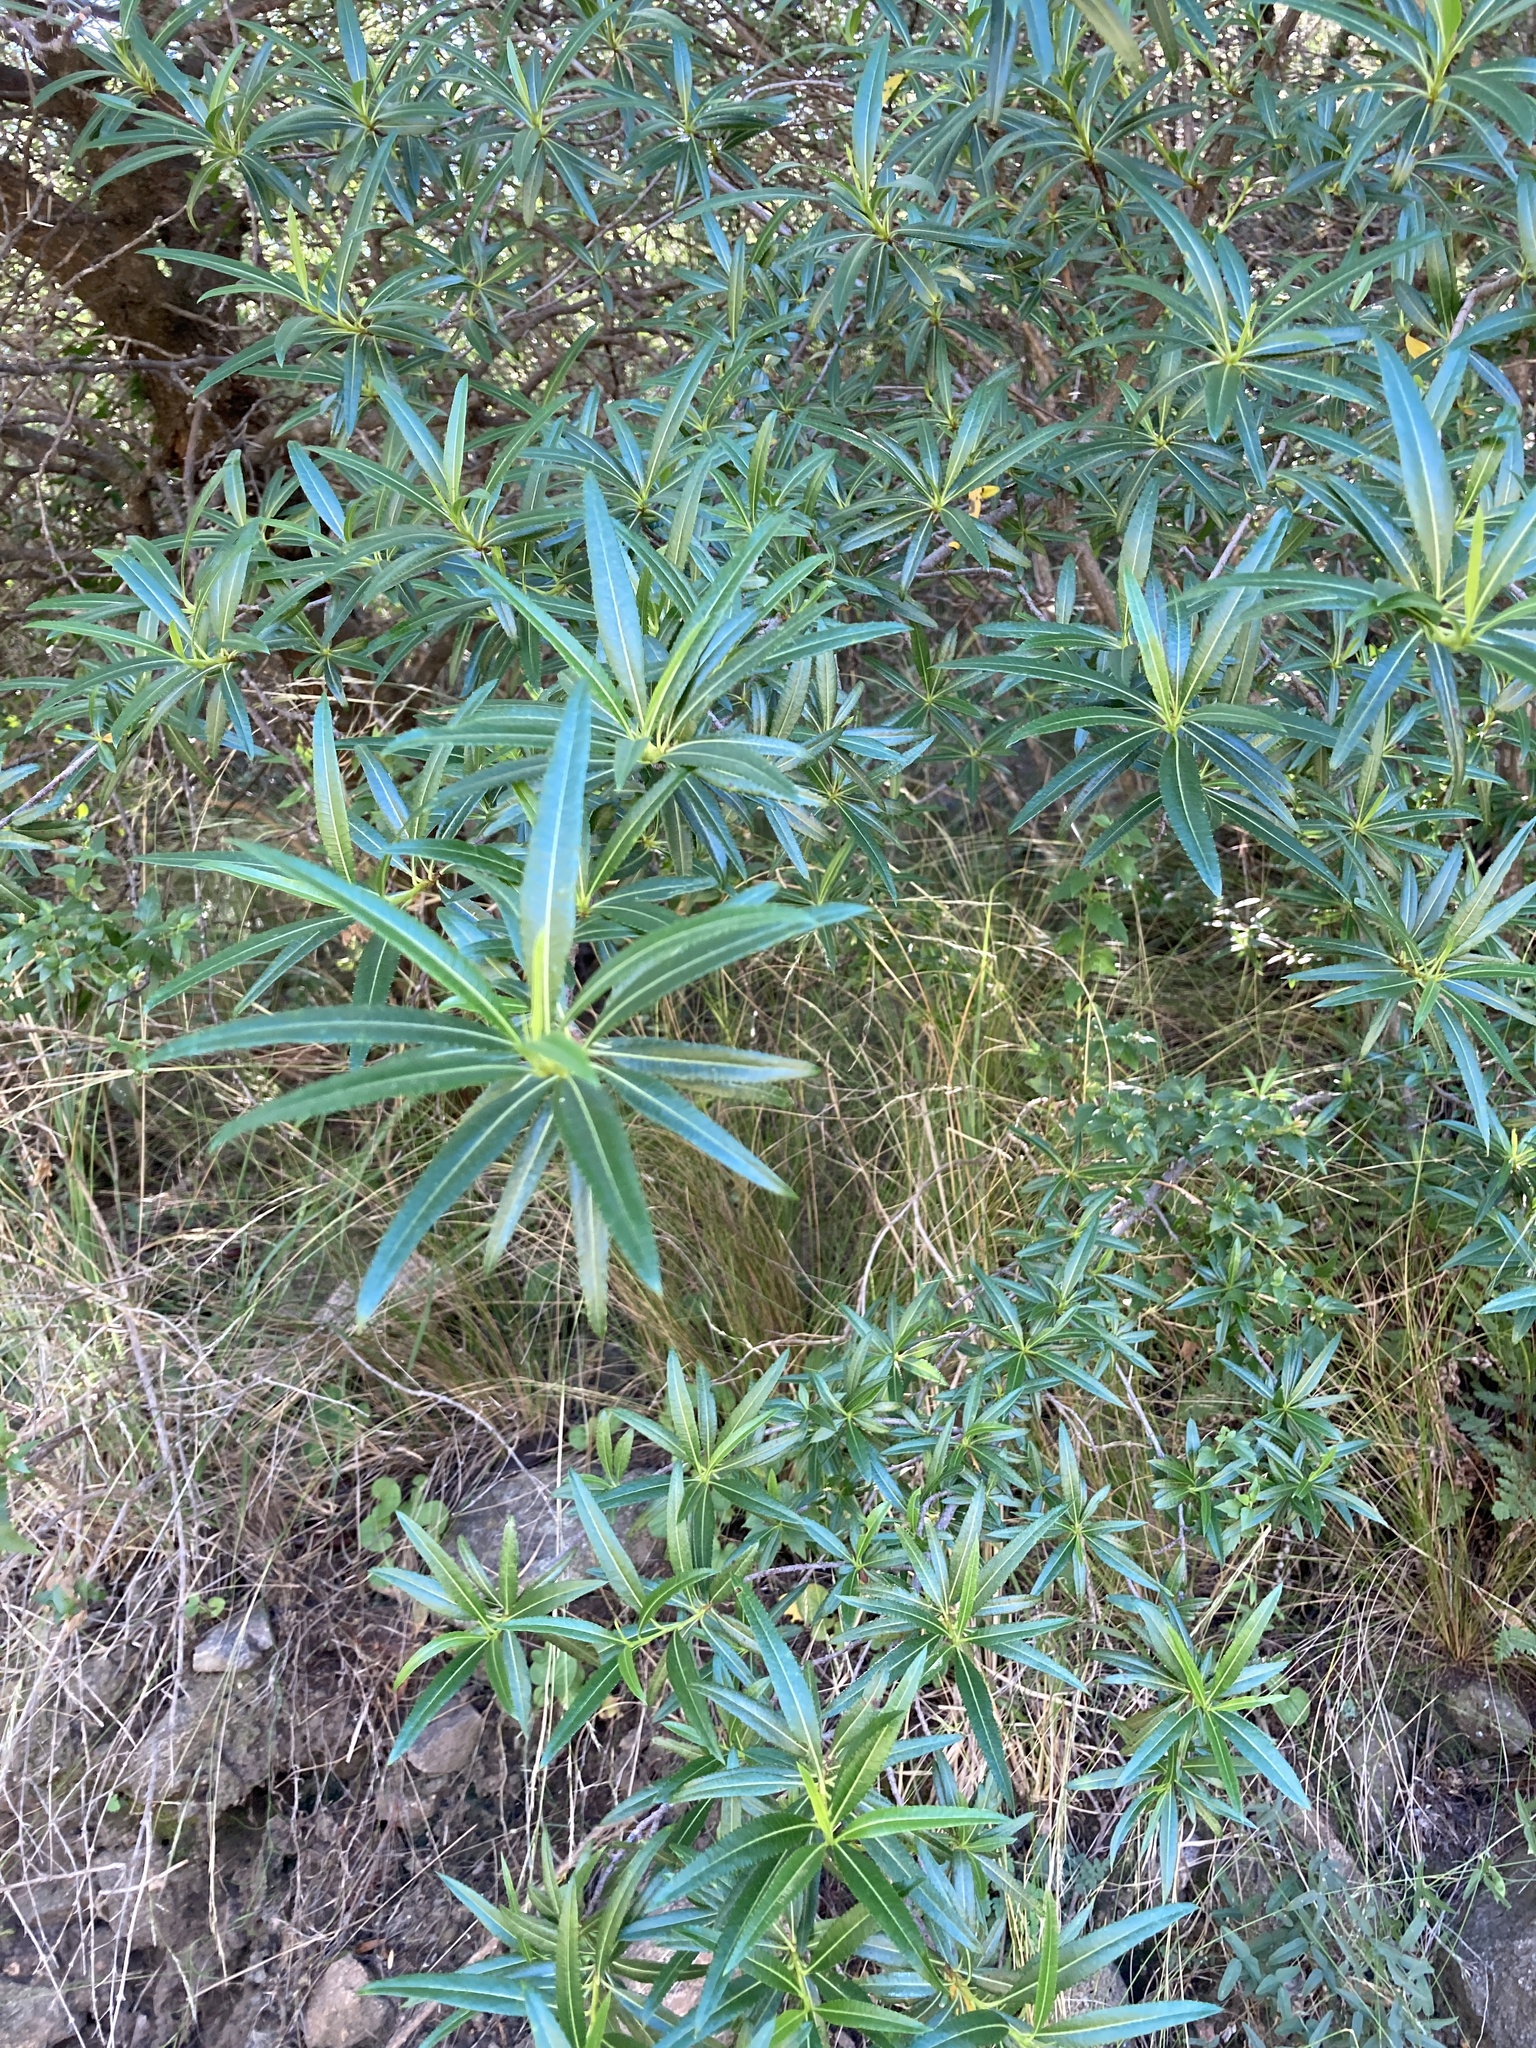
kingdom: Plantae
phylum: Tracheophyta
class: Magnoliopsida
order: Rosales
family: Rosaceae
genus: Kageneckia
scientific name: Kageneckia lanceolata
